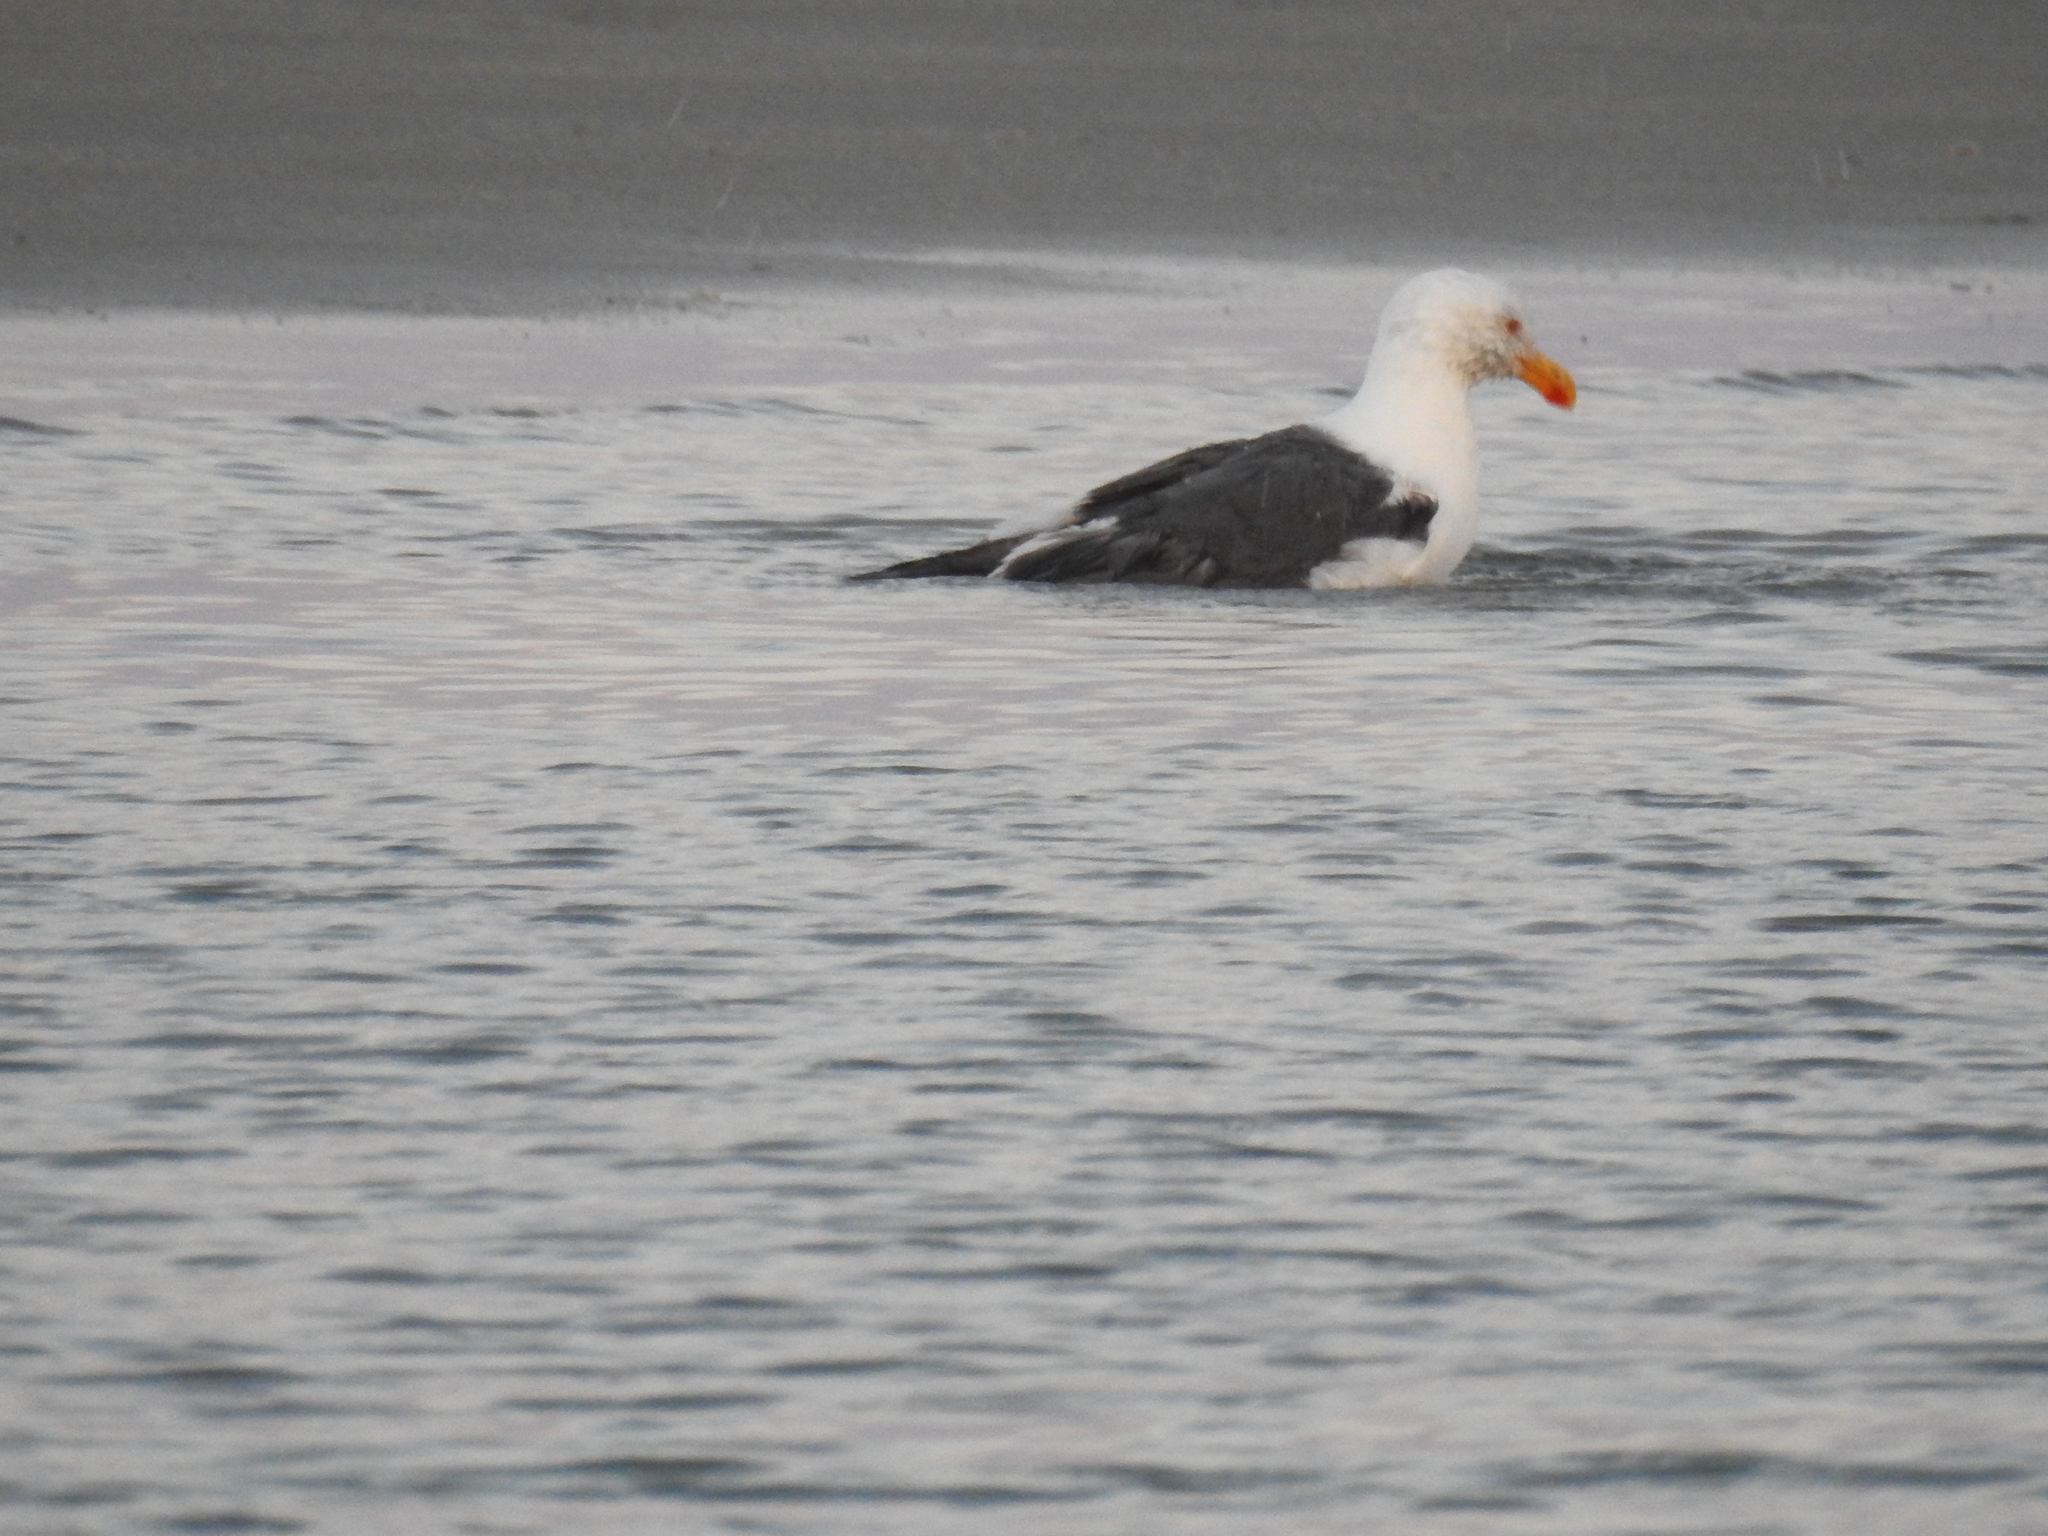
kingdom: Animalia
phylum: Chordata
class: Aves
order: Charadriiformes
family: Laridae
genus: Larus
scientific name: Larus livens
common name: Yellow-footed gull
